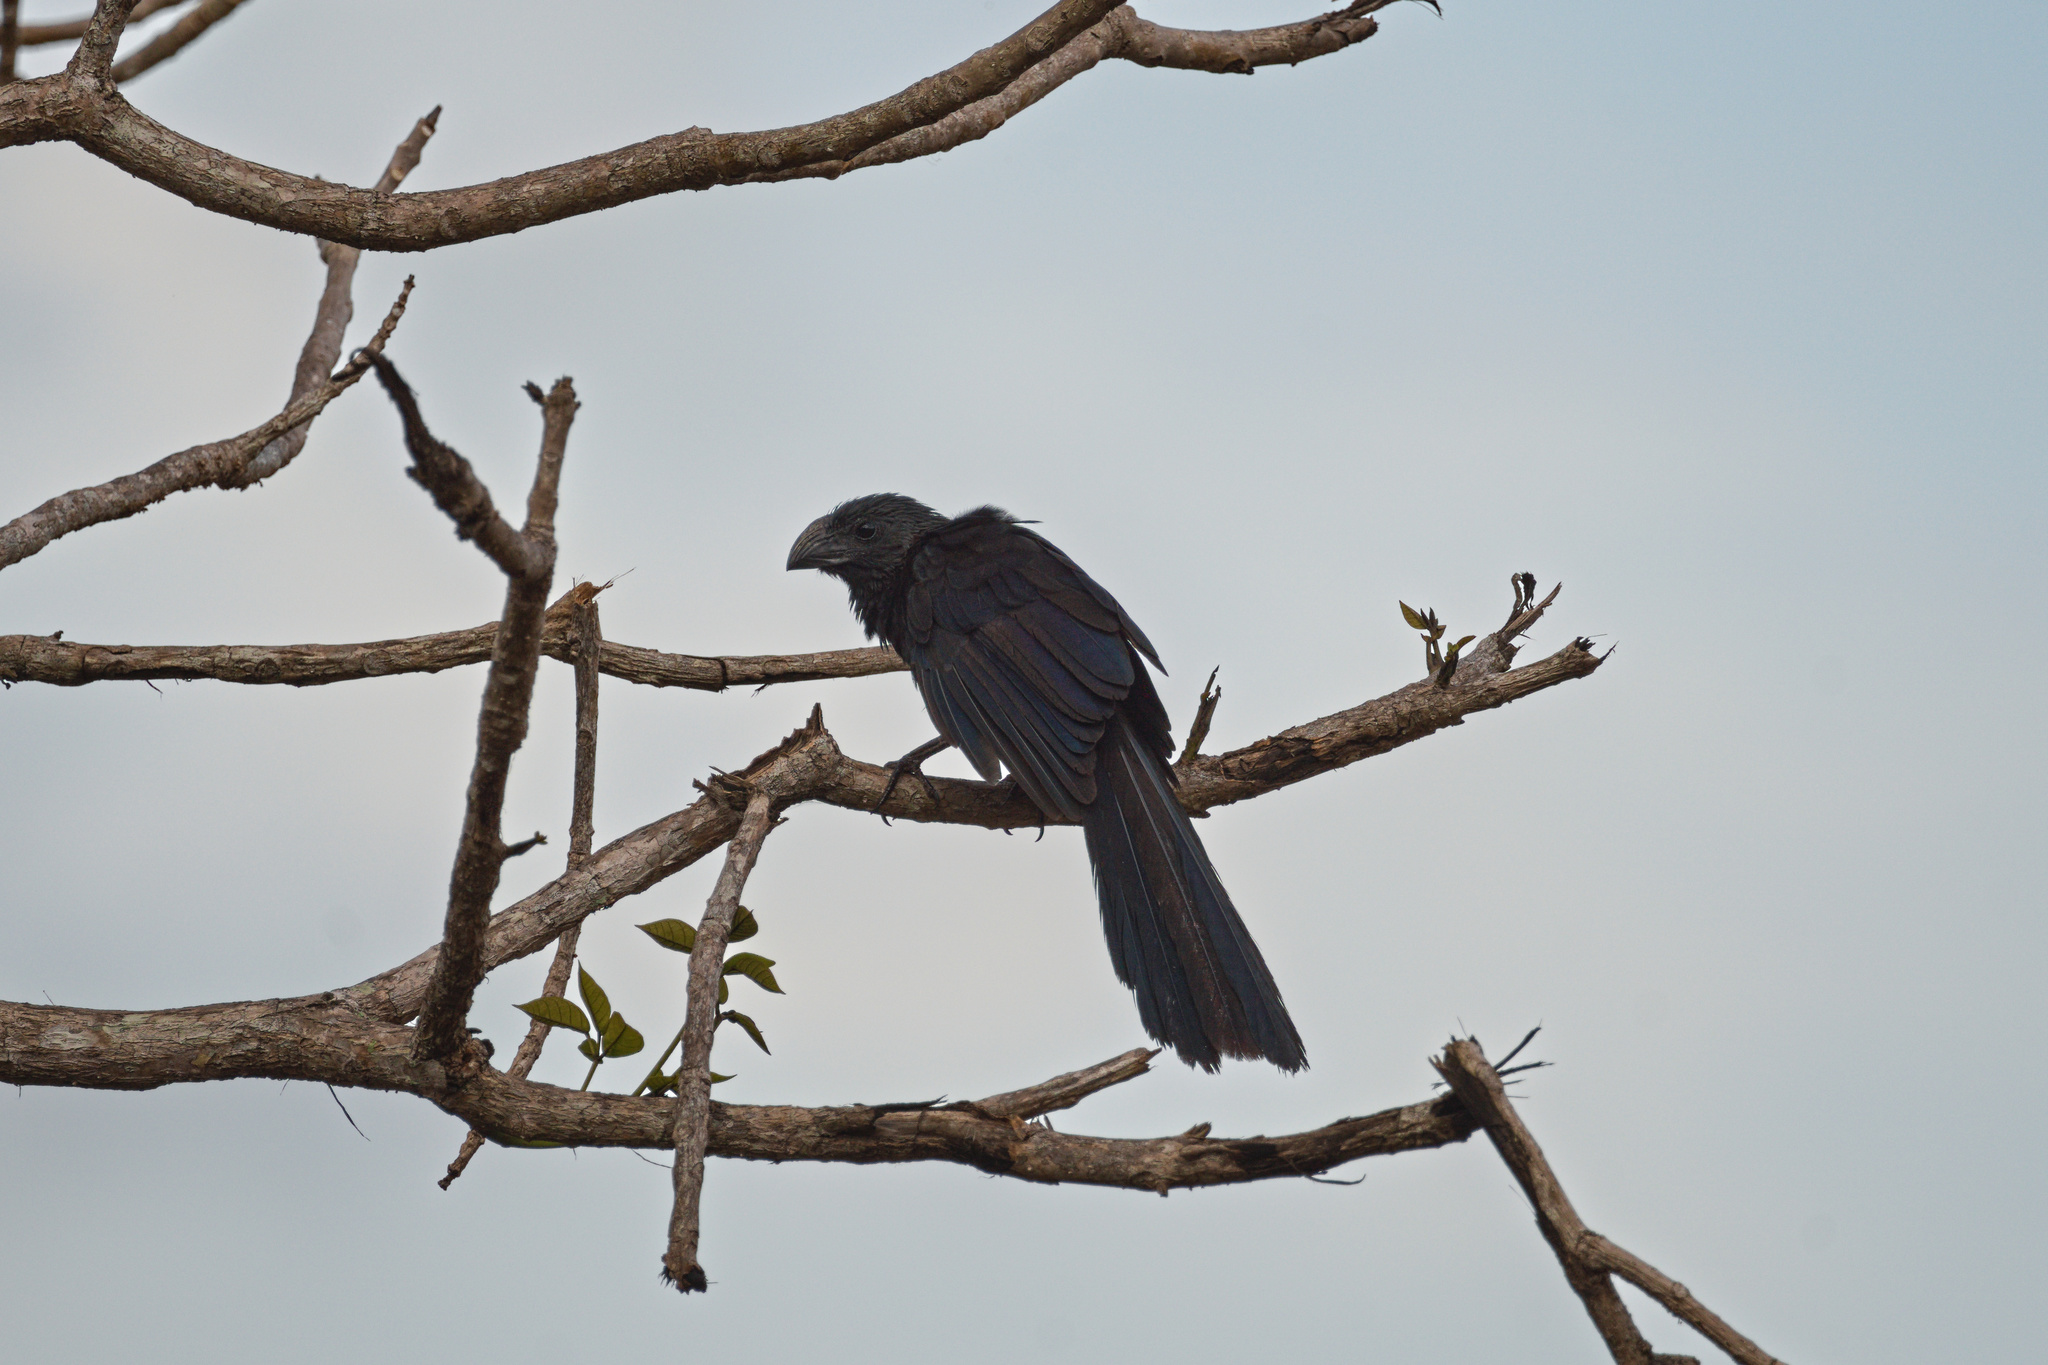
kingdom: Animalia
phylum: Chordata
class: Aves
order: Cuculiformes
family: Cuculidae
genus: Crotophaga
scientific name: Crotophaga sulcirostris
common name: Groove-billed ani
